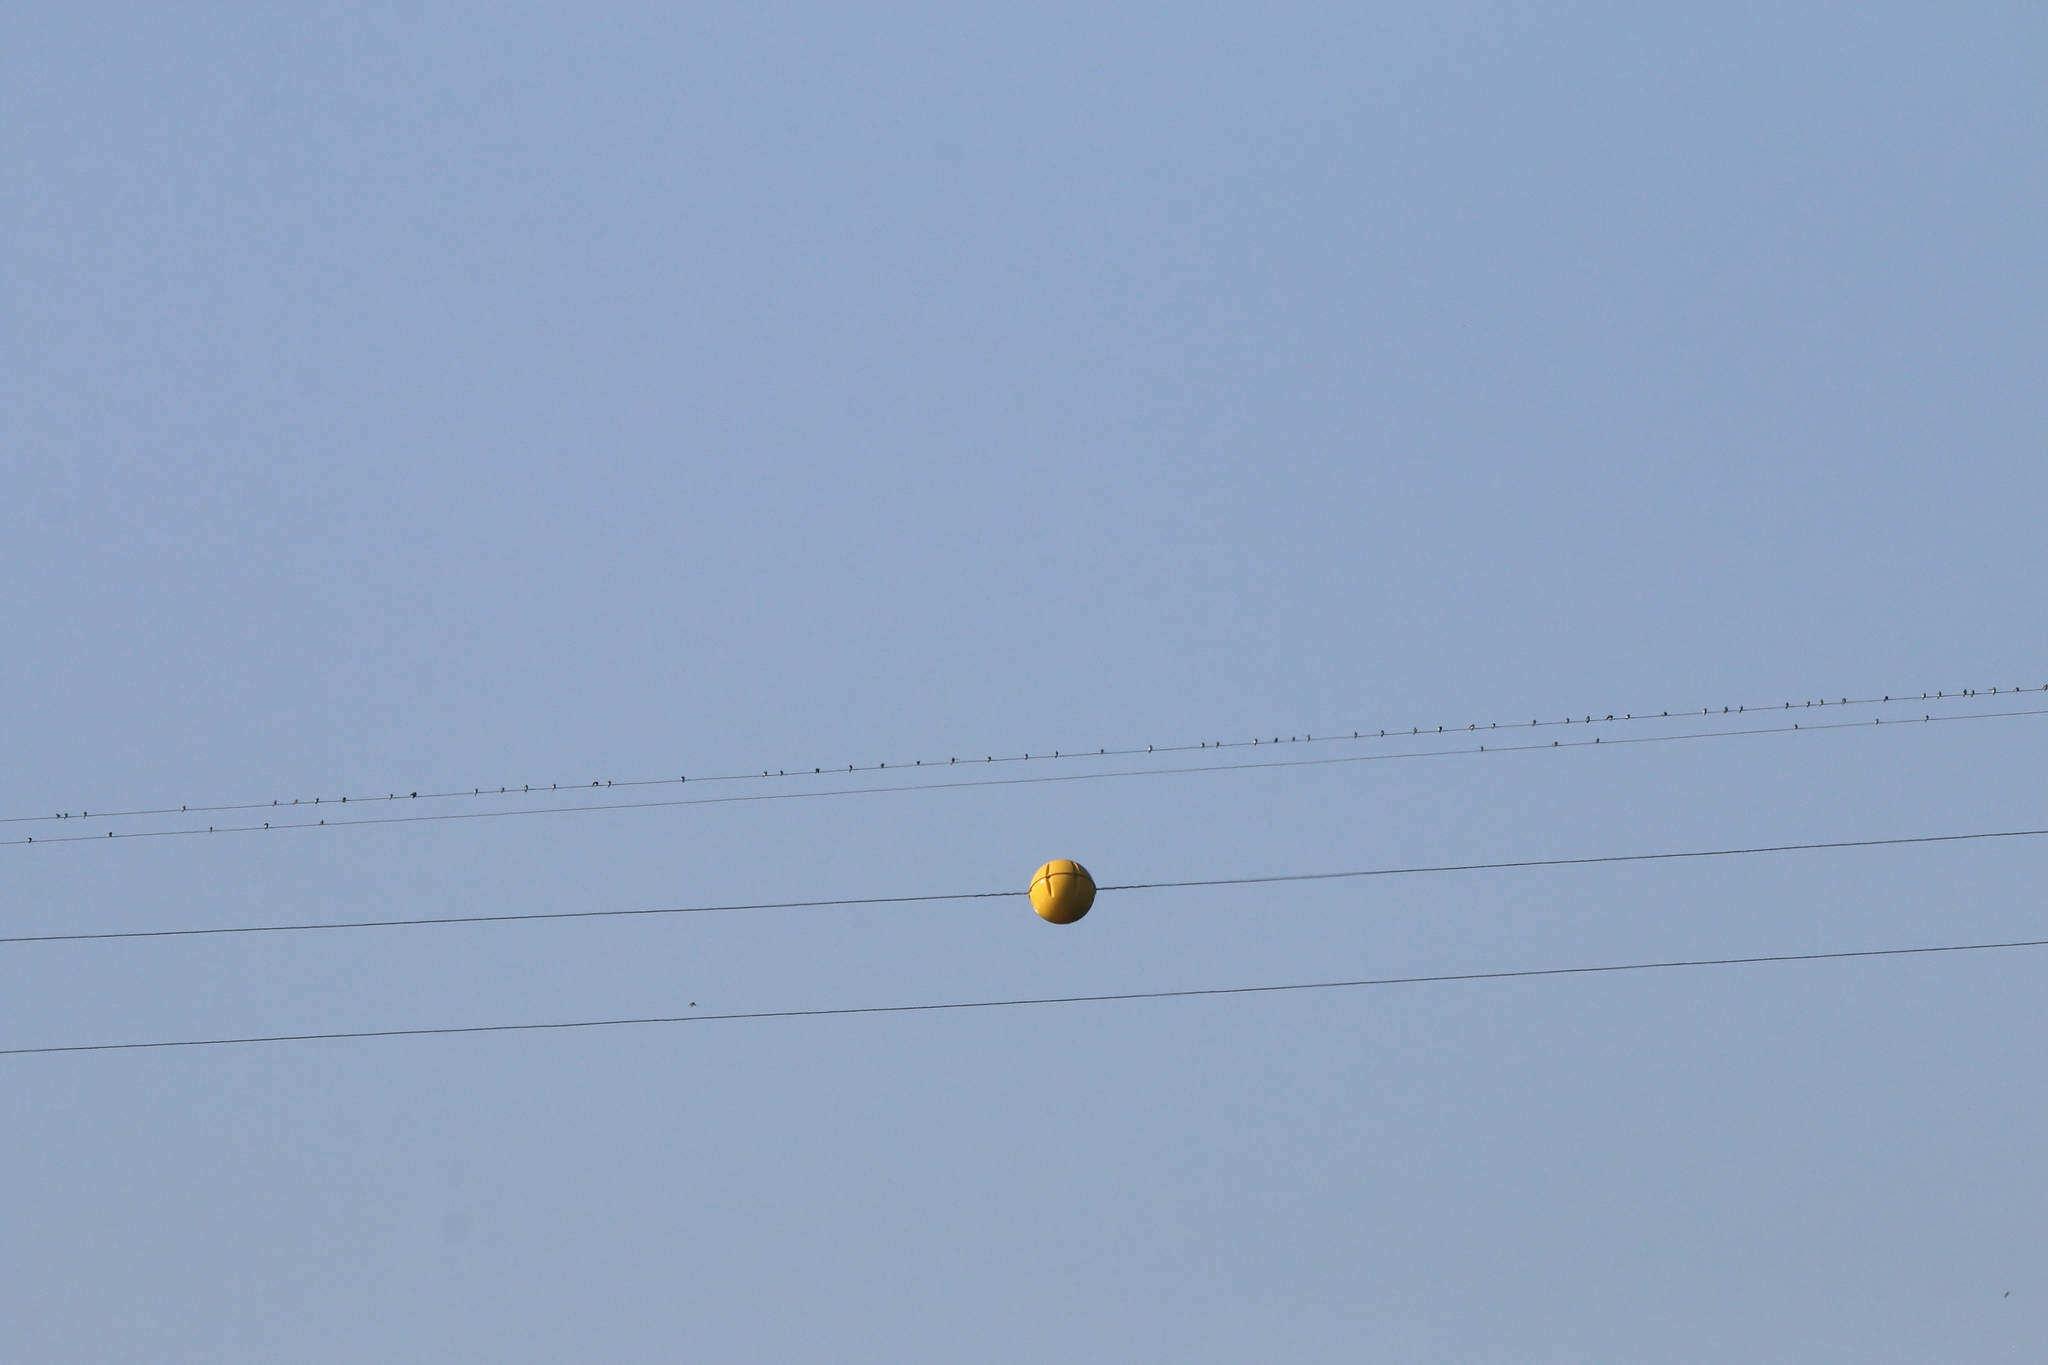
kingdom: Animalia
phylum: Chordata
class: Aves
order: Passeriformes
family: Hirundinidae
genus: Riparia
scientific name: Riparia riparia
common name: Sand martin
